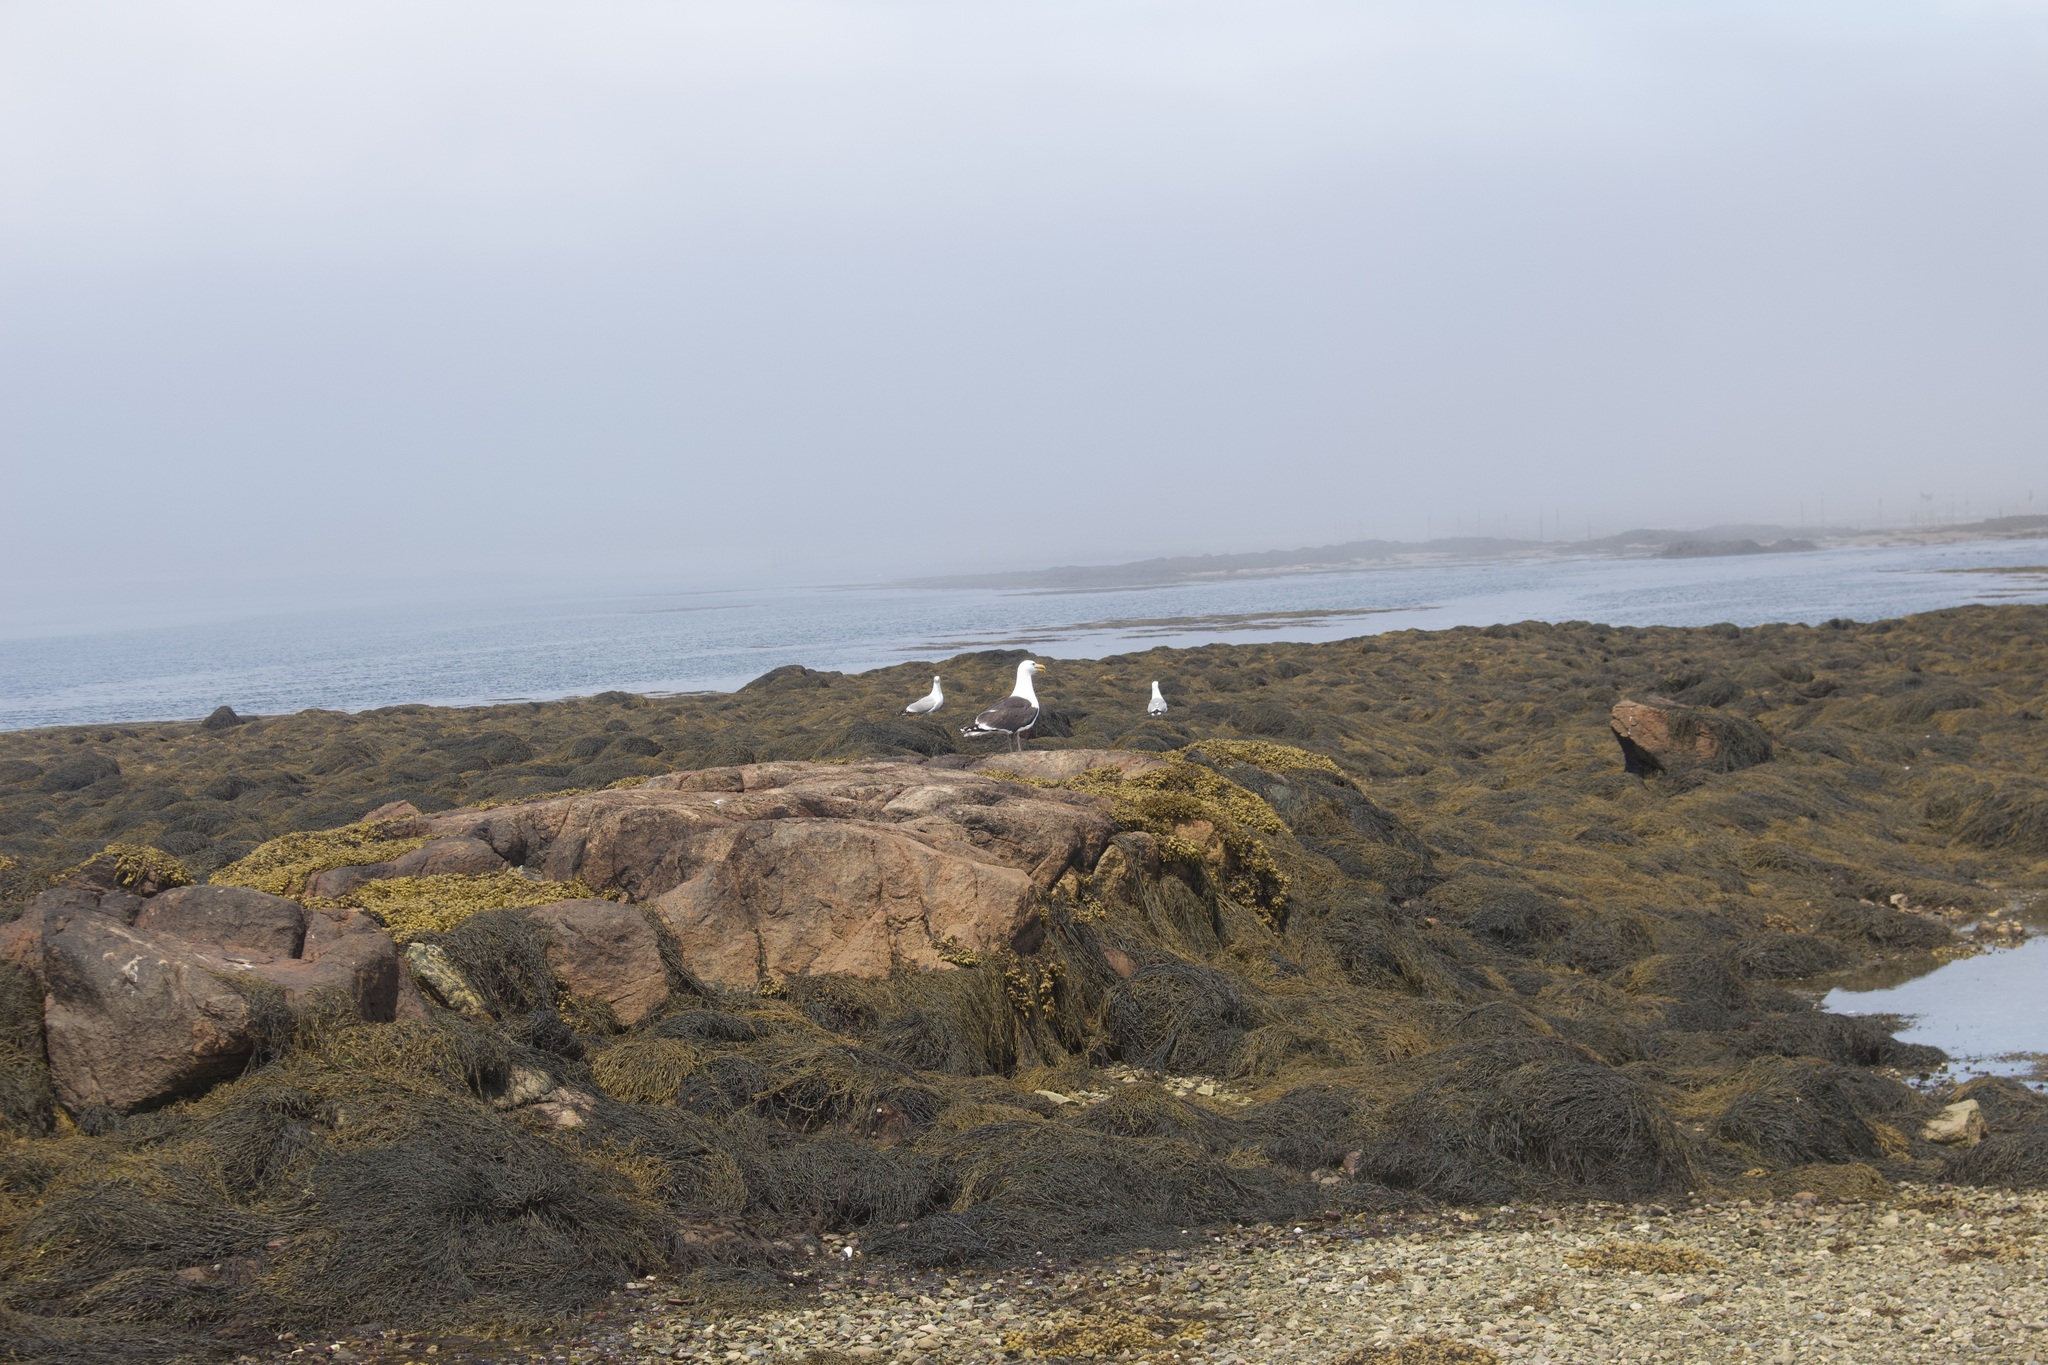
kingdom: Animalia
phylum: Chordata
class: Aves
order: Charadriiformes
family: Laridae
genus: Larus
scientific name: Larus marinus
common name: Great black-backed gull
